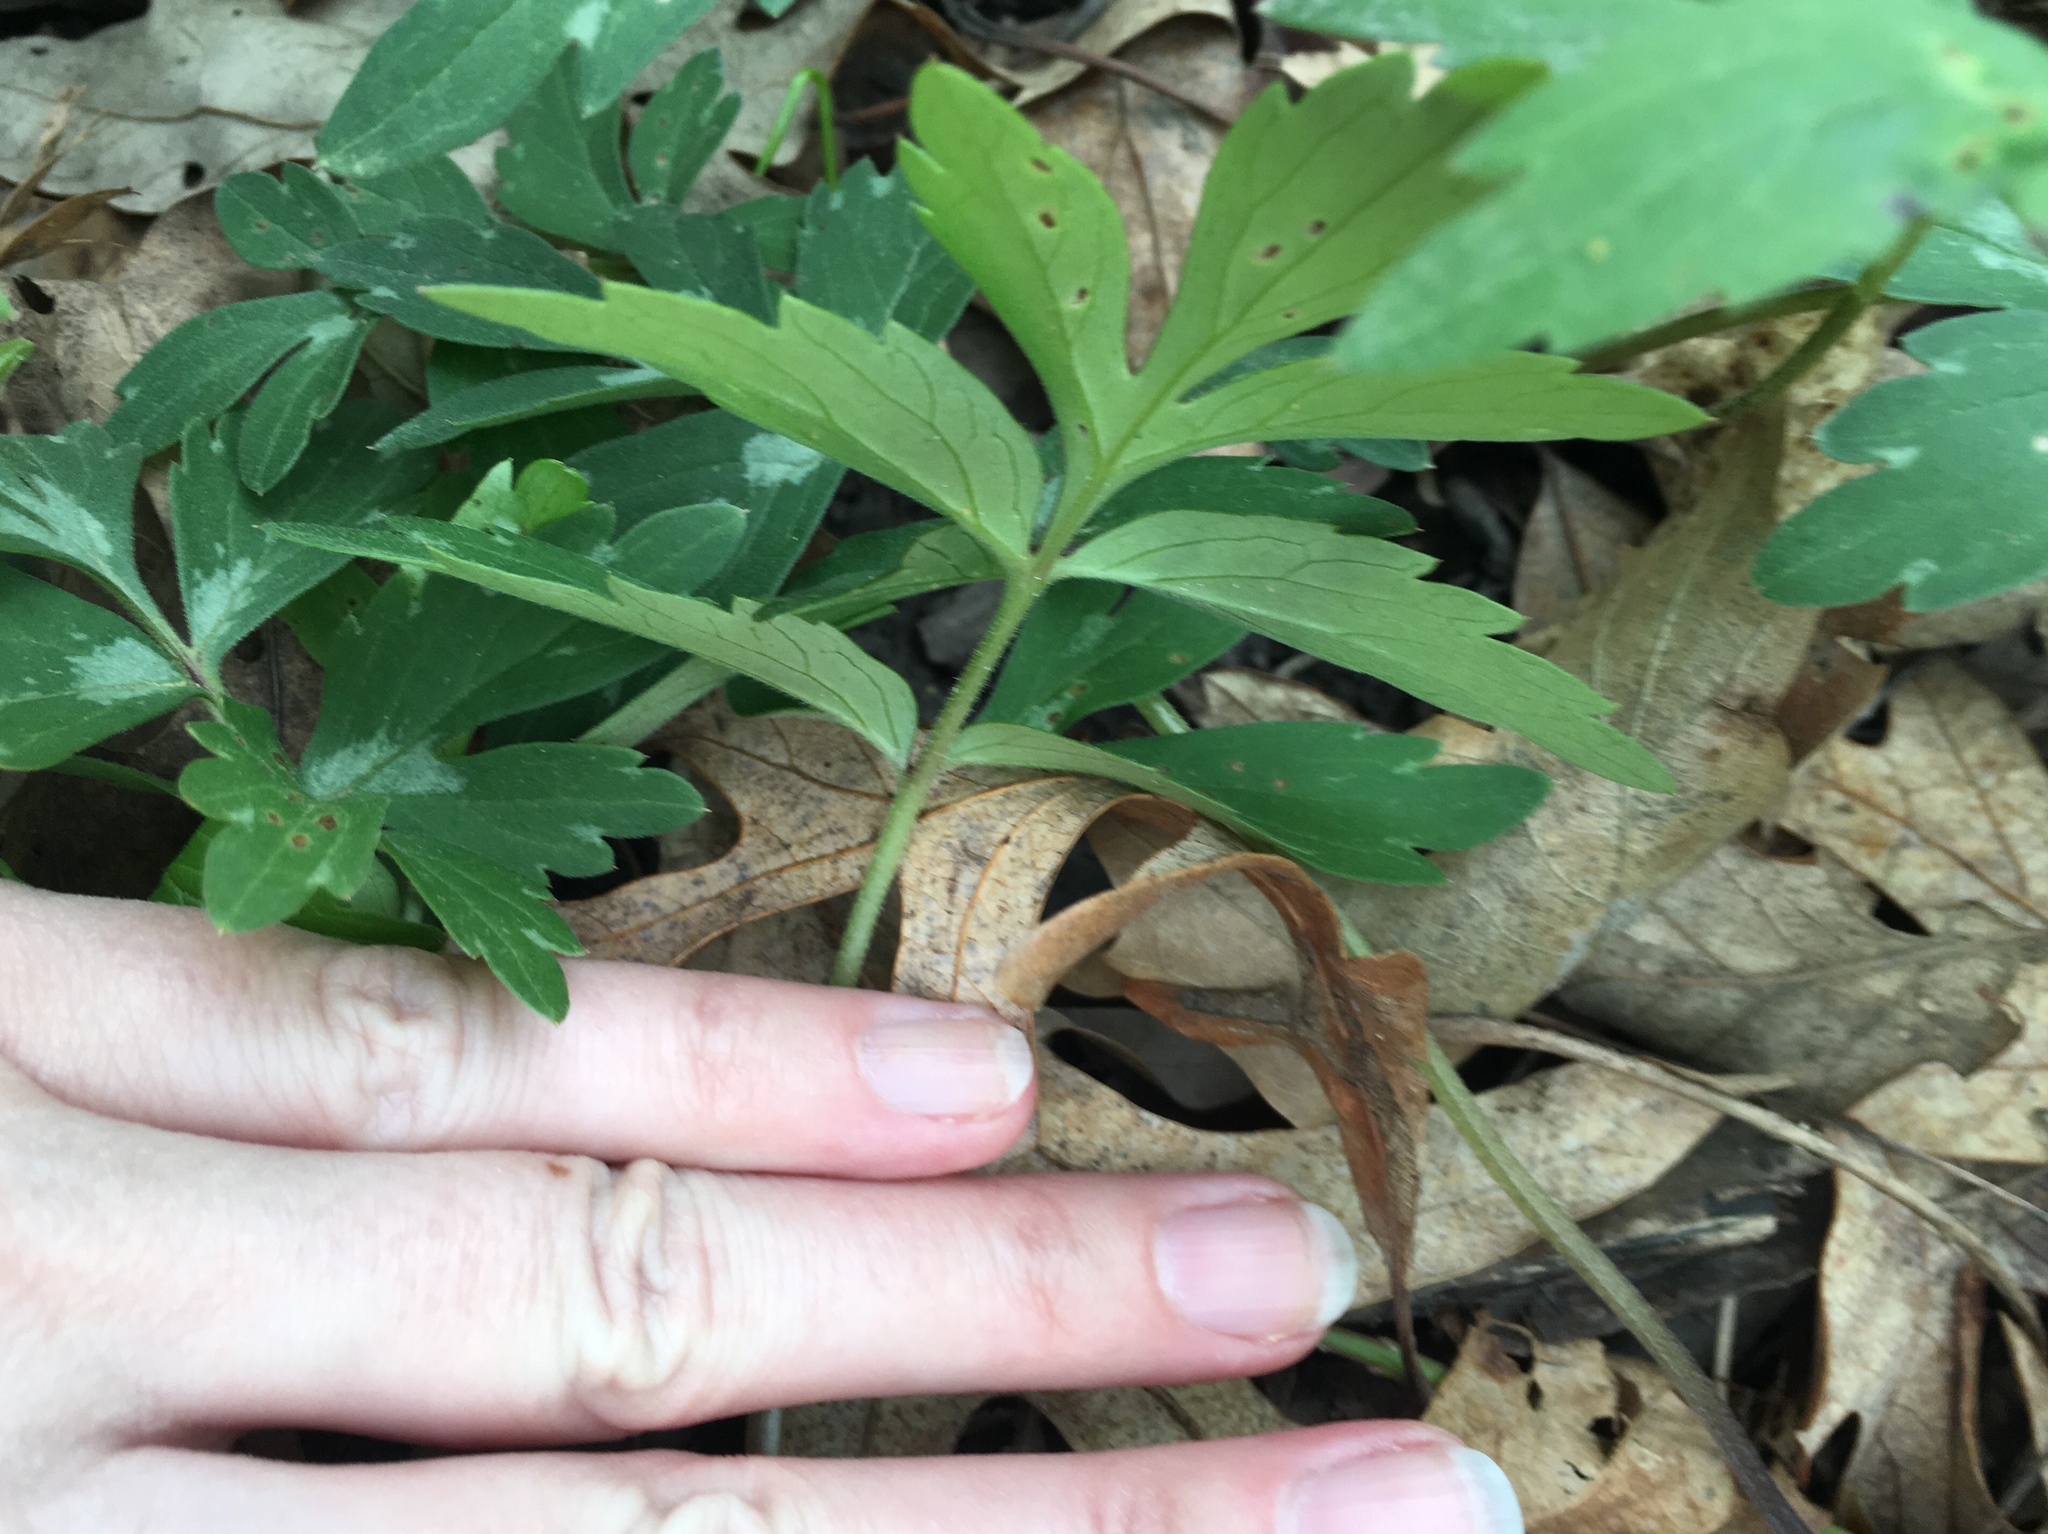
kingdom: Plantae
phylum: Tracheophyta
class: Magnoliopsida
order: Boraginales
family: Hydrophyllaceae
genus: Hydrophyllum
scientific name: Hydrophyllum virginianum
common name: Virginia waterleaf
